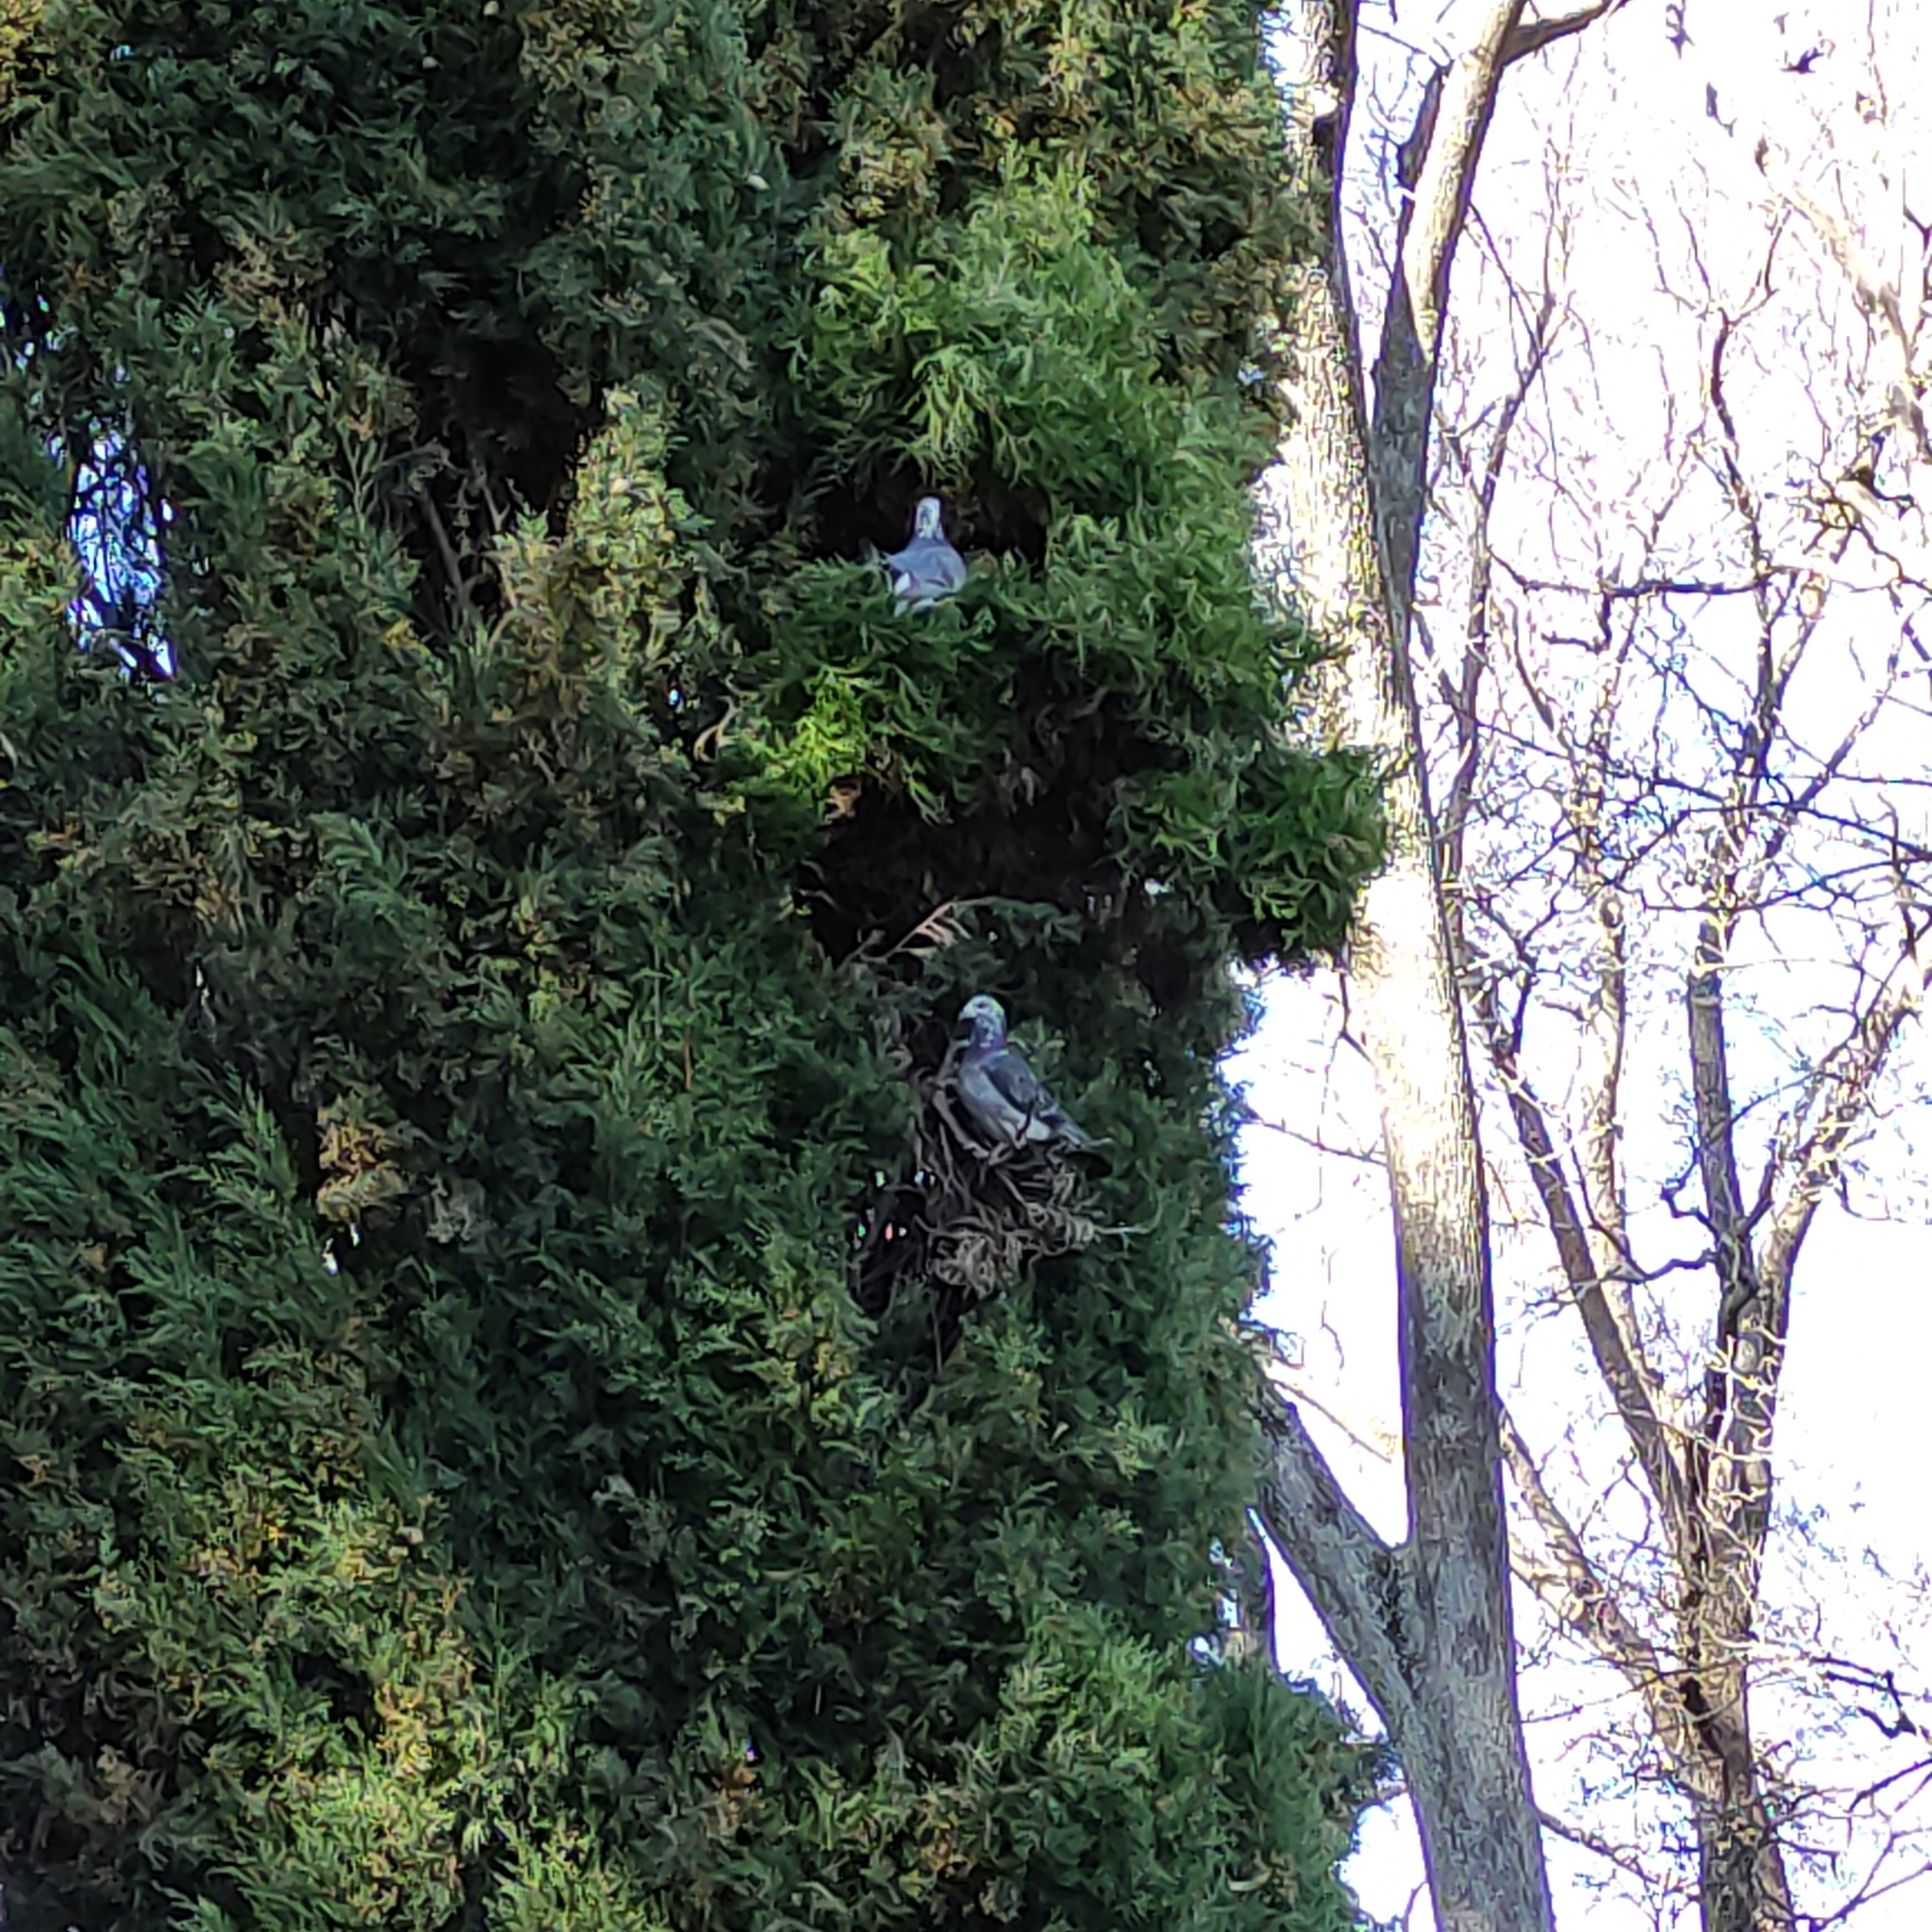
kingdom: Animalia
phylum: Chordata
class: Aves
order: Columbiformes
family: Columbidae
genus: Columba
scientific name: Columba livia
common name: Rock pigeon
